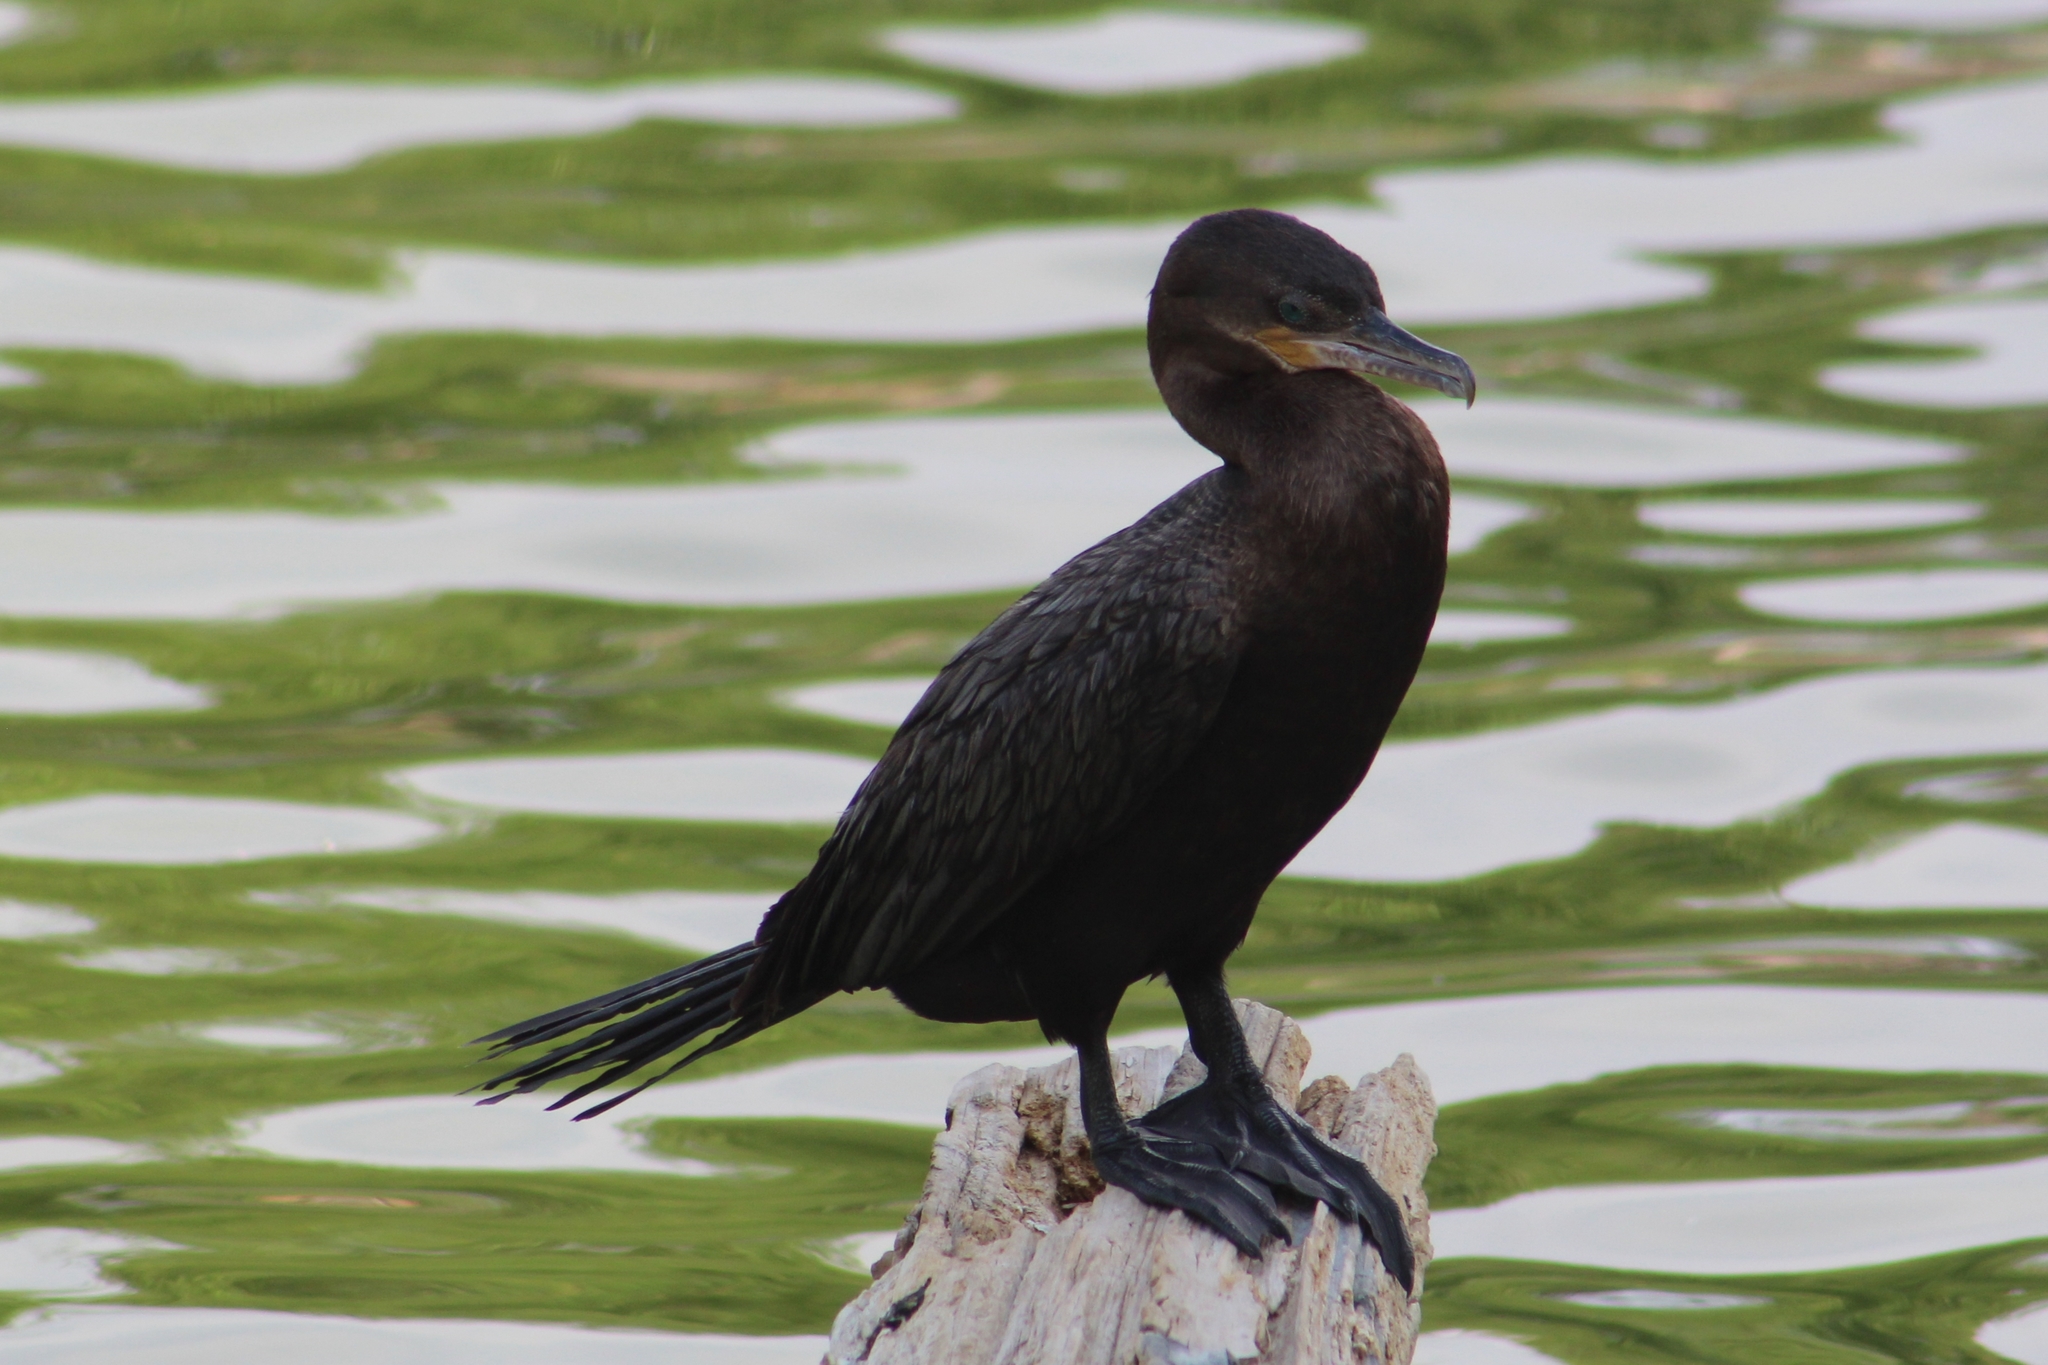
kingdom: Animalia
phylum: Chordata
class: Aves
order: Suliformes
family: Phalacrocoracidae
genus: Phalacrocorax
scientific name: Phalacrocorax brasilianus
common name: Neotropic cormorant
